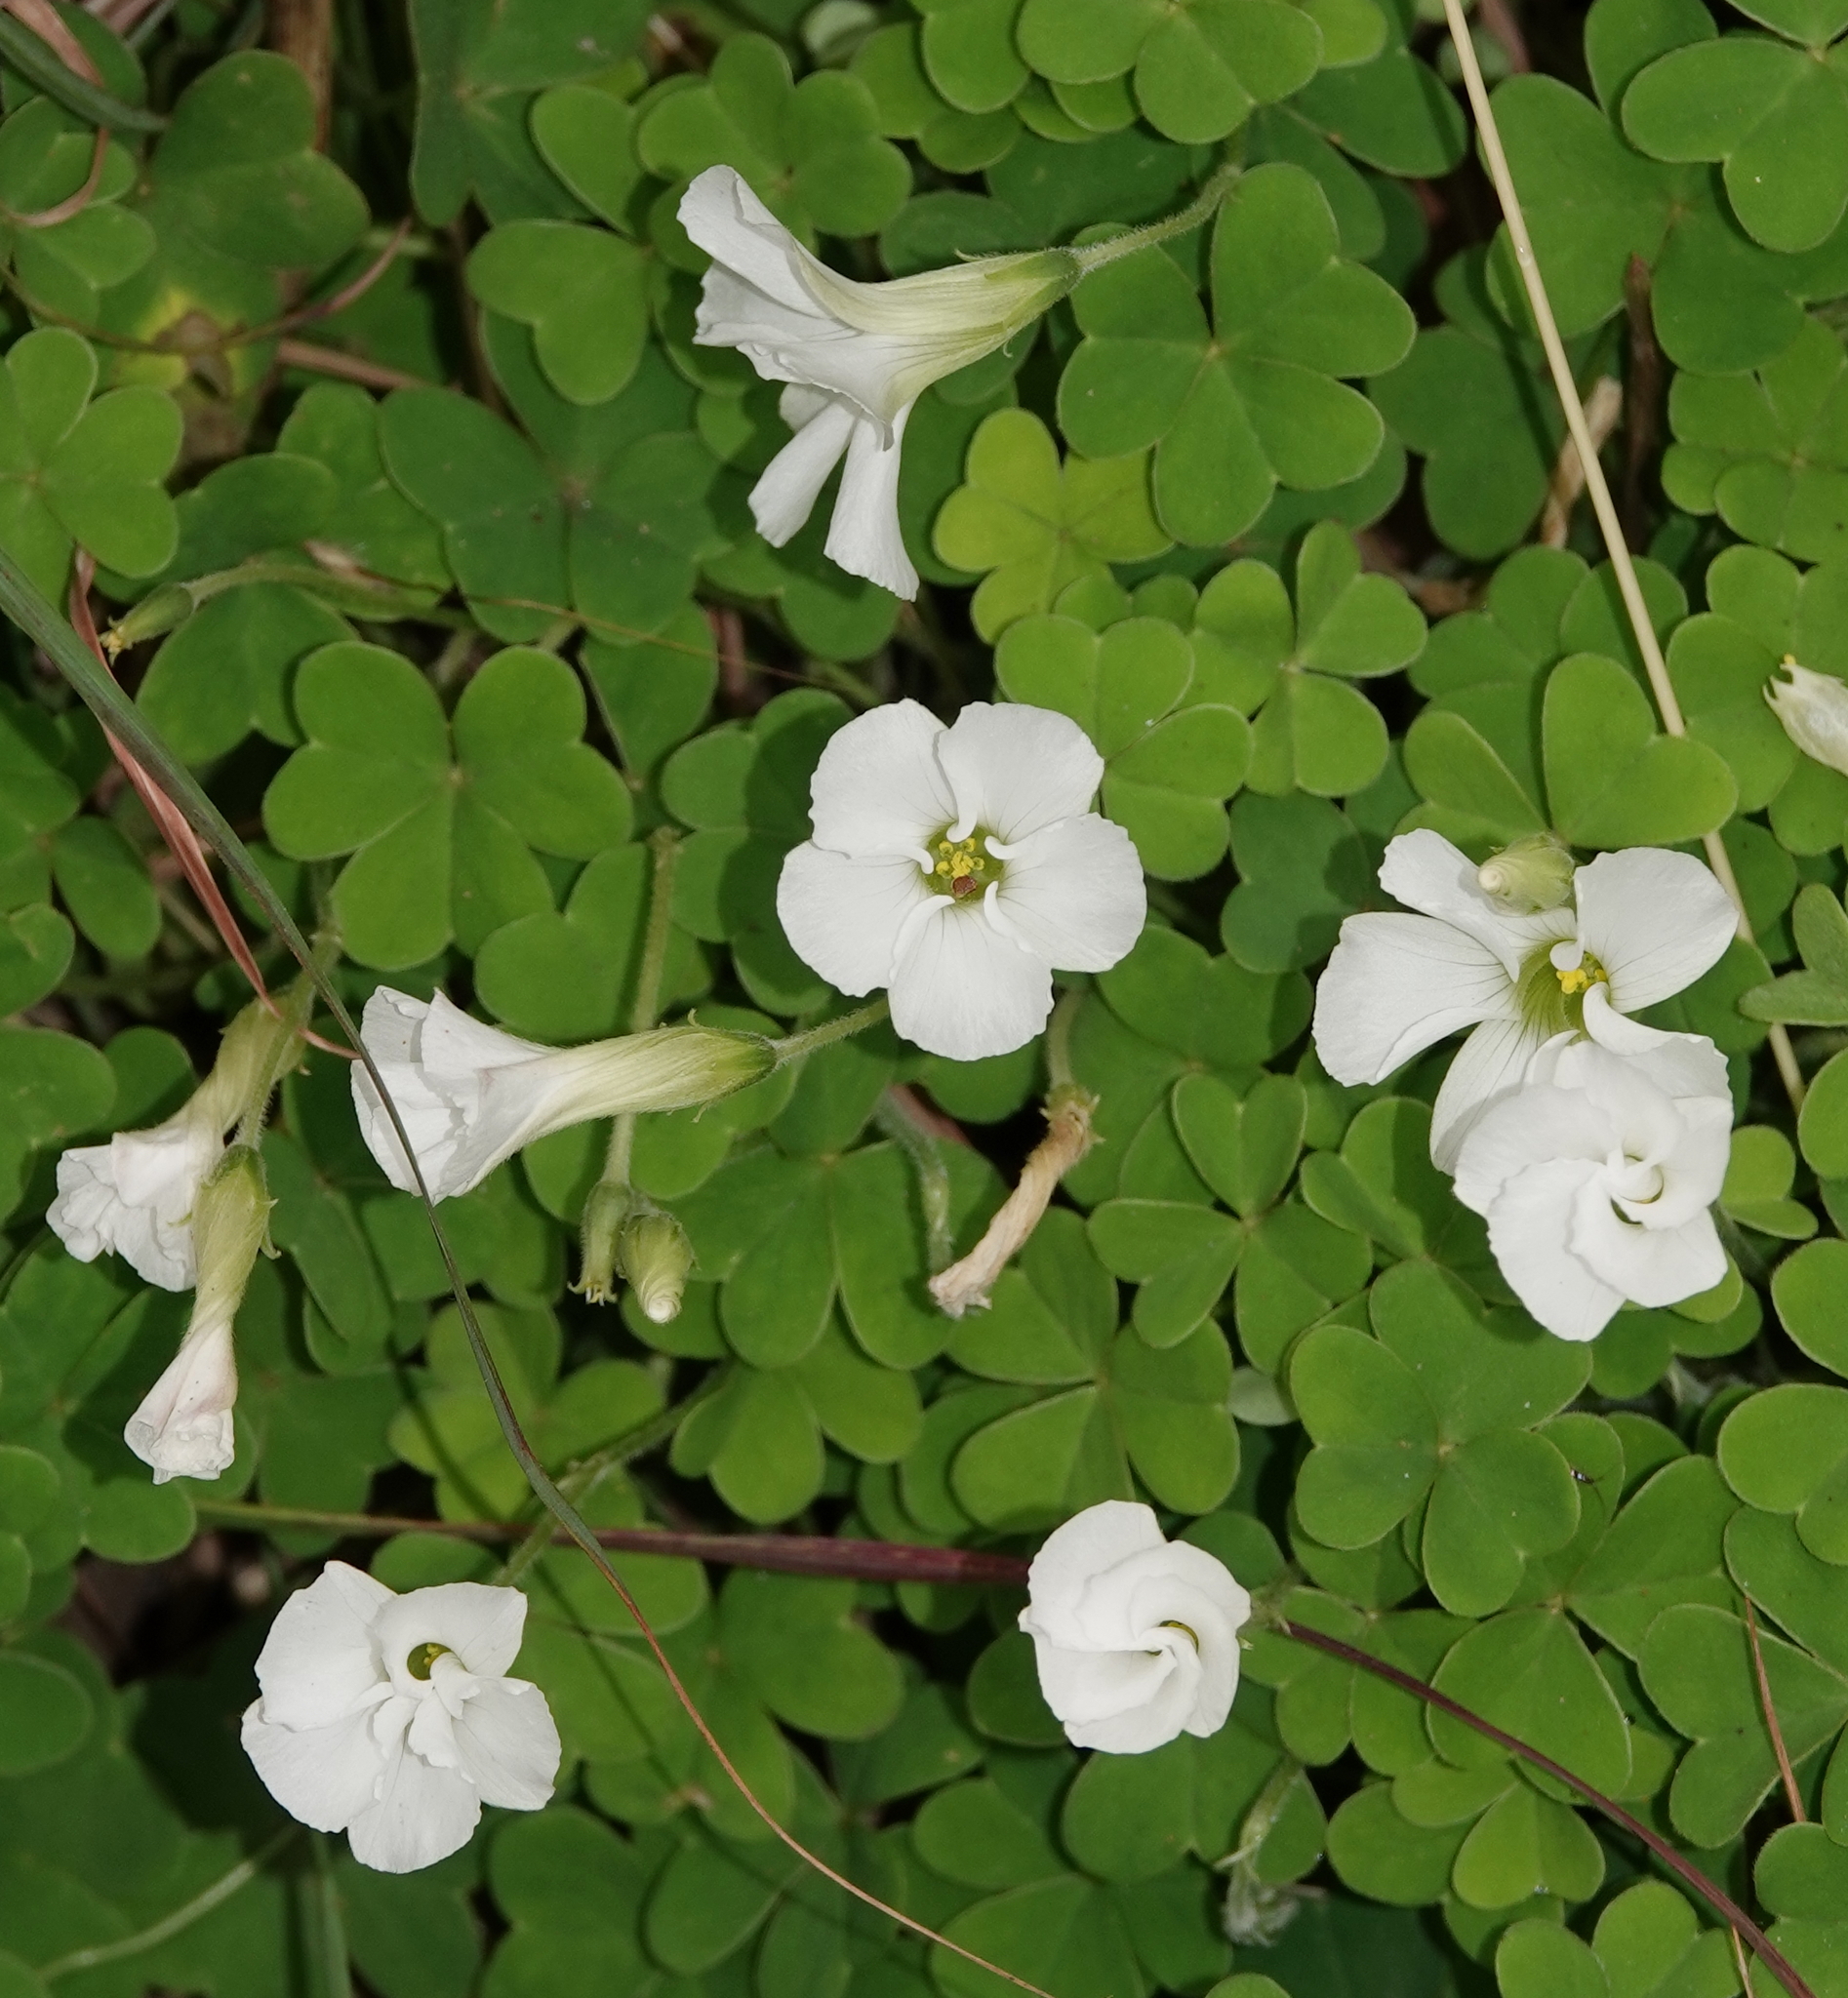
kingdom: Plantae
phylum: Tracheophyta
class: Magnoliopsida
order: Oxalidales
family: Oxalidaceae
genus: Oxalis
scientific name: Oxalis lanata
